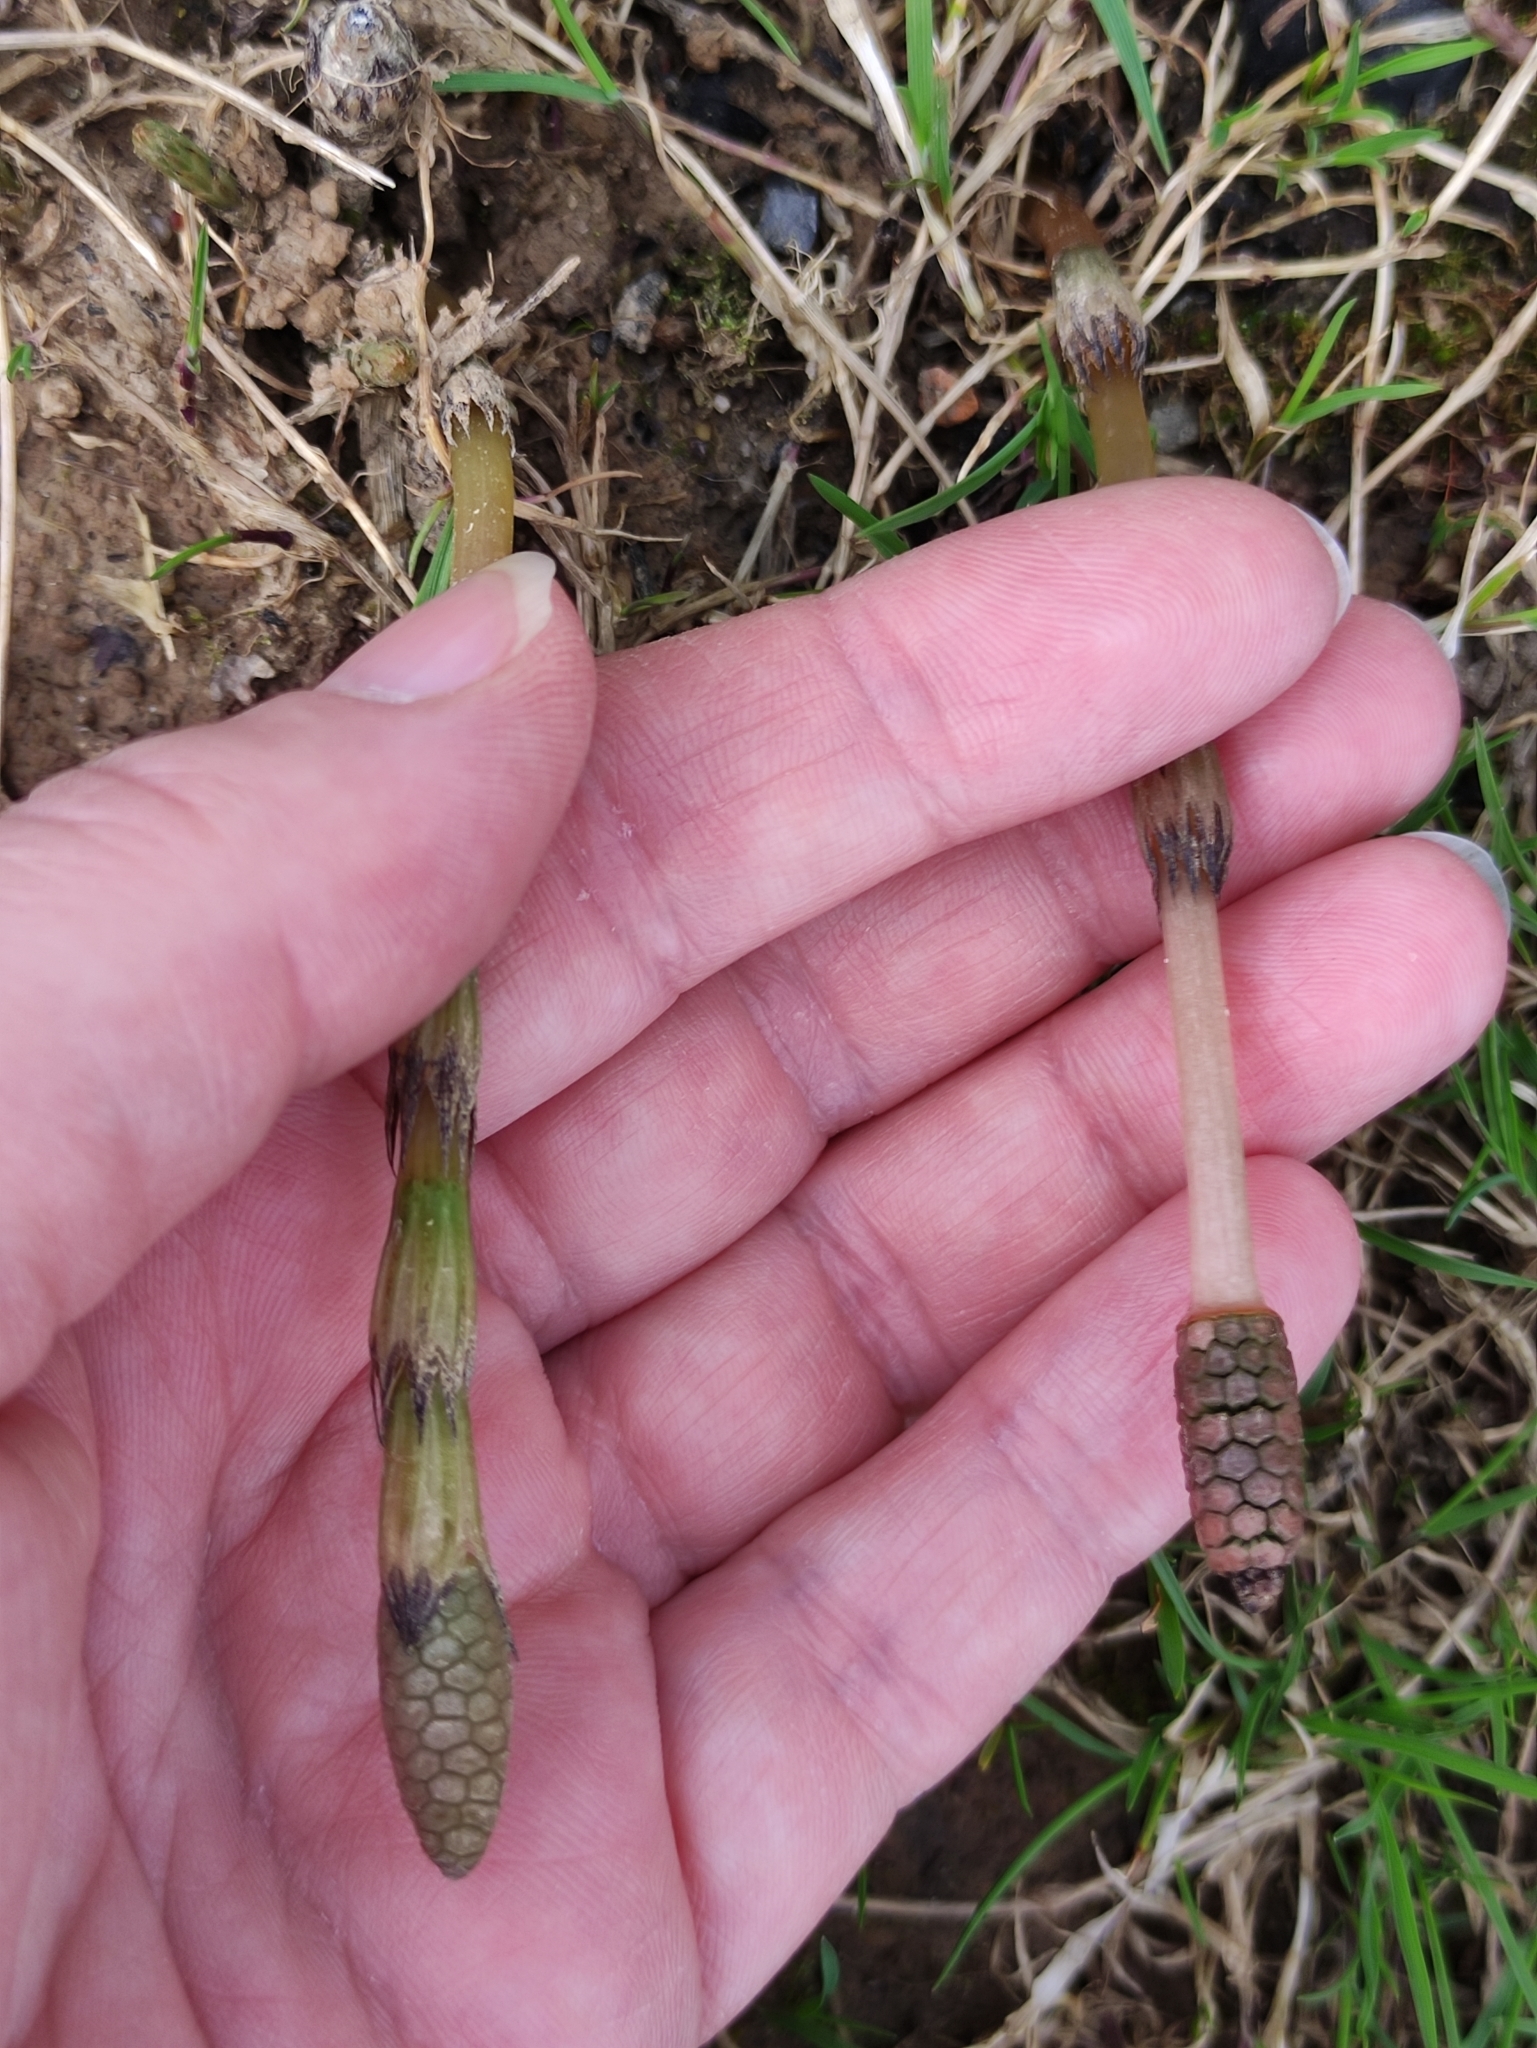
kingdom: Plantae
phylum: Tracheophyta
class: Polypodiopsida
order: Equisetales
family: Equisetaceae
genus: Equisetum
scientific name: Equisetum arvense
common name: Field horsetail
